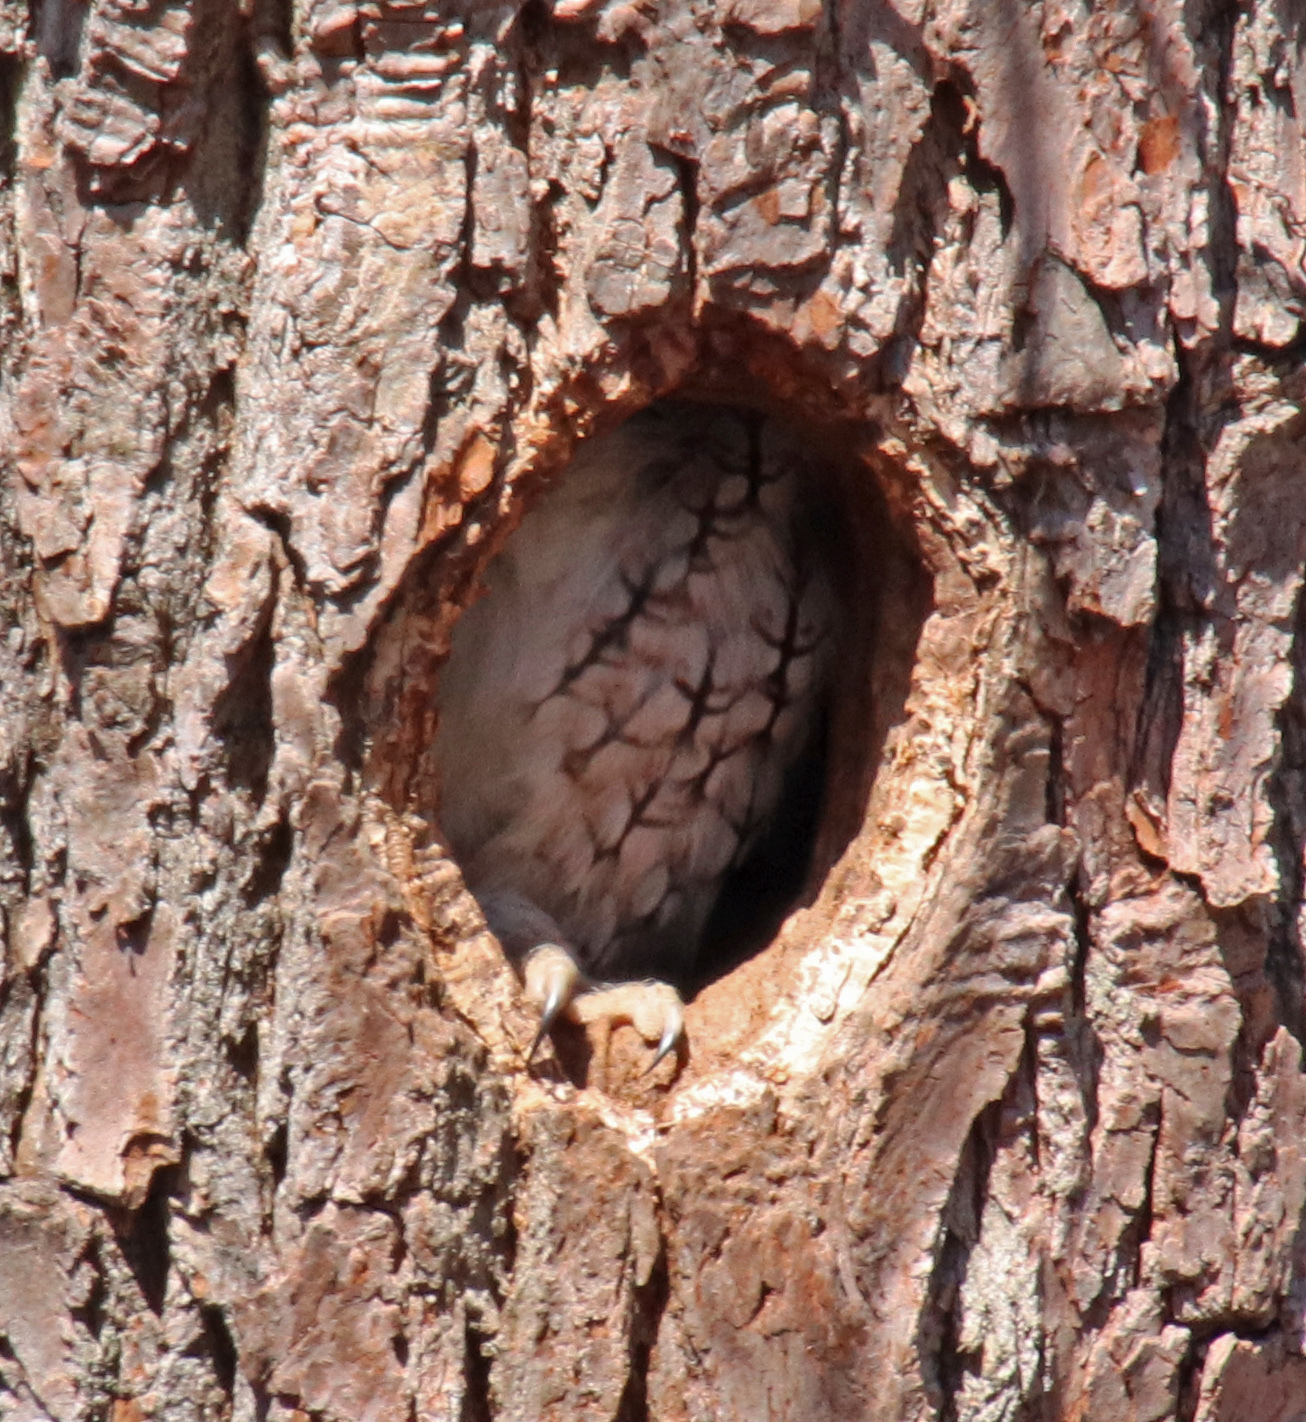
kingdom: Animalia
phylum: Chordata
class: Aves
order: Strigiformes
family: Strigidae
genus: Megascops
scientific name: Megascops asio
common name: Eastern screech-owl
